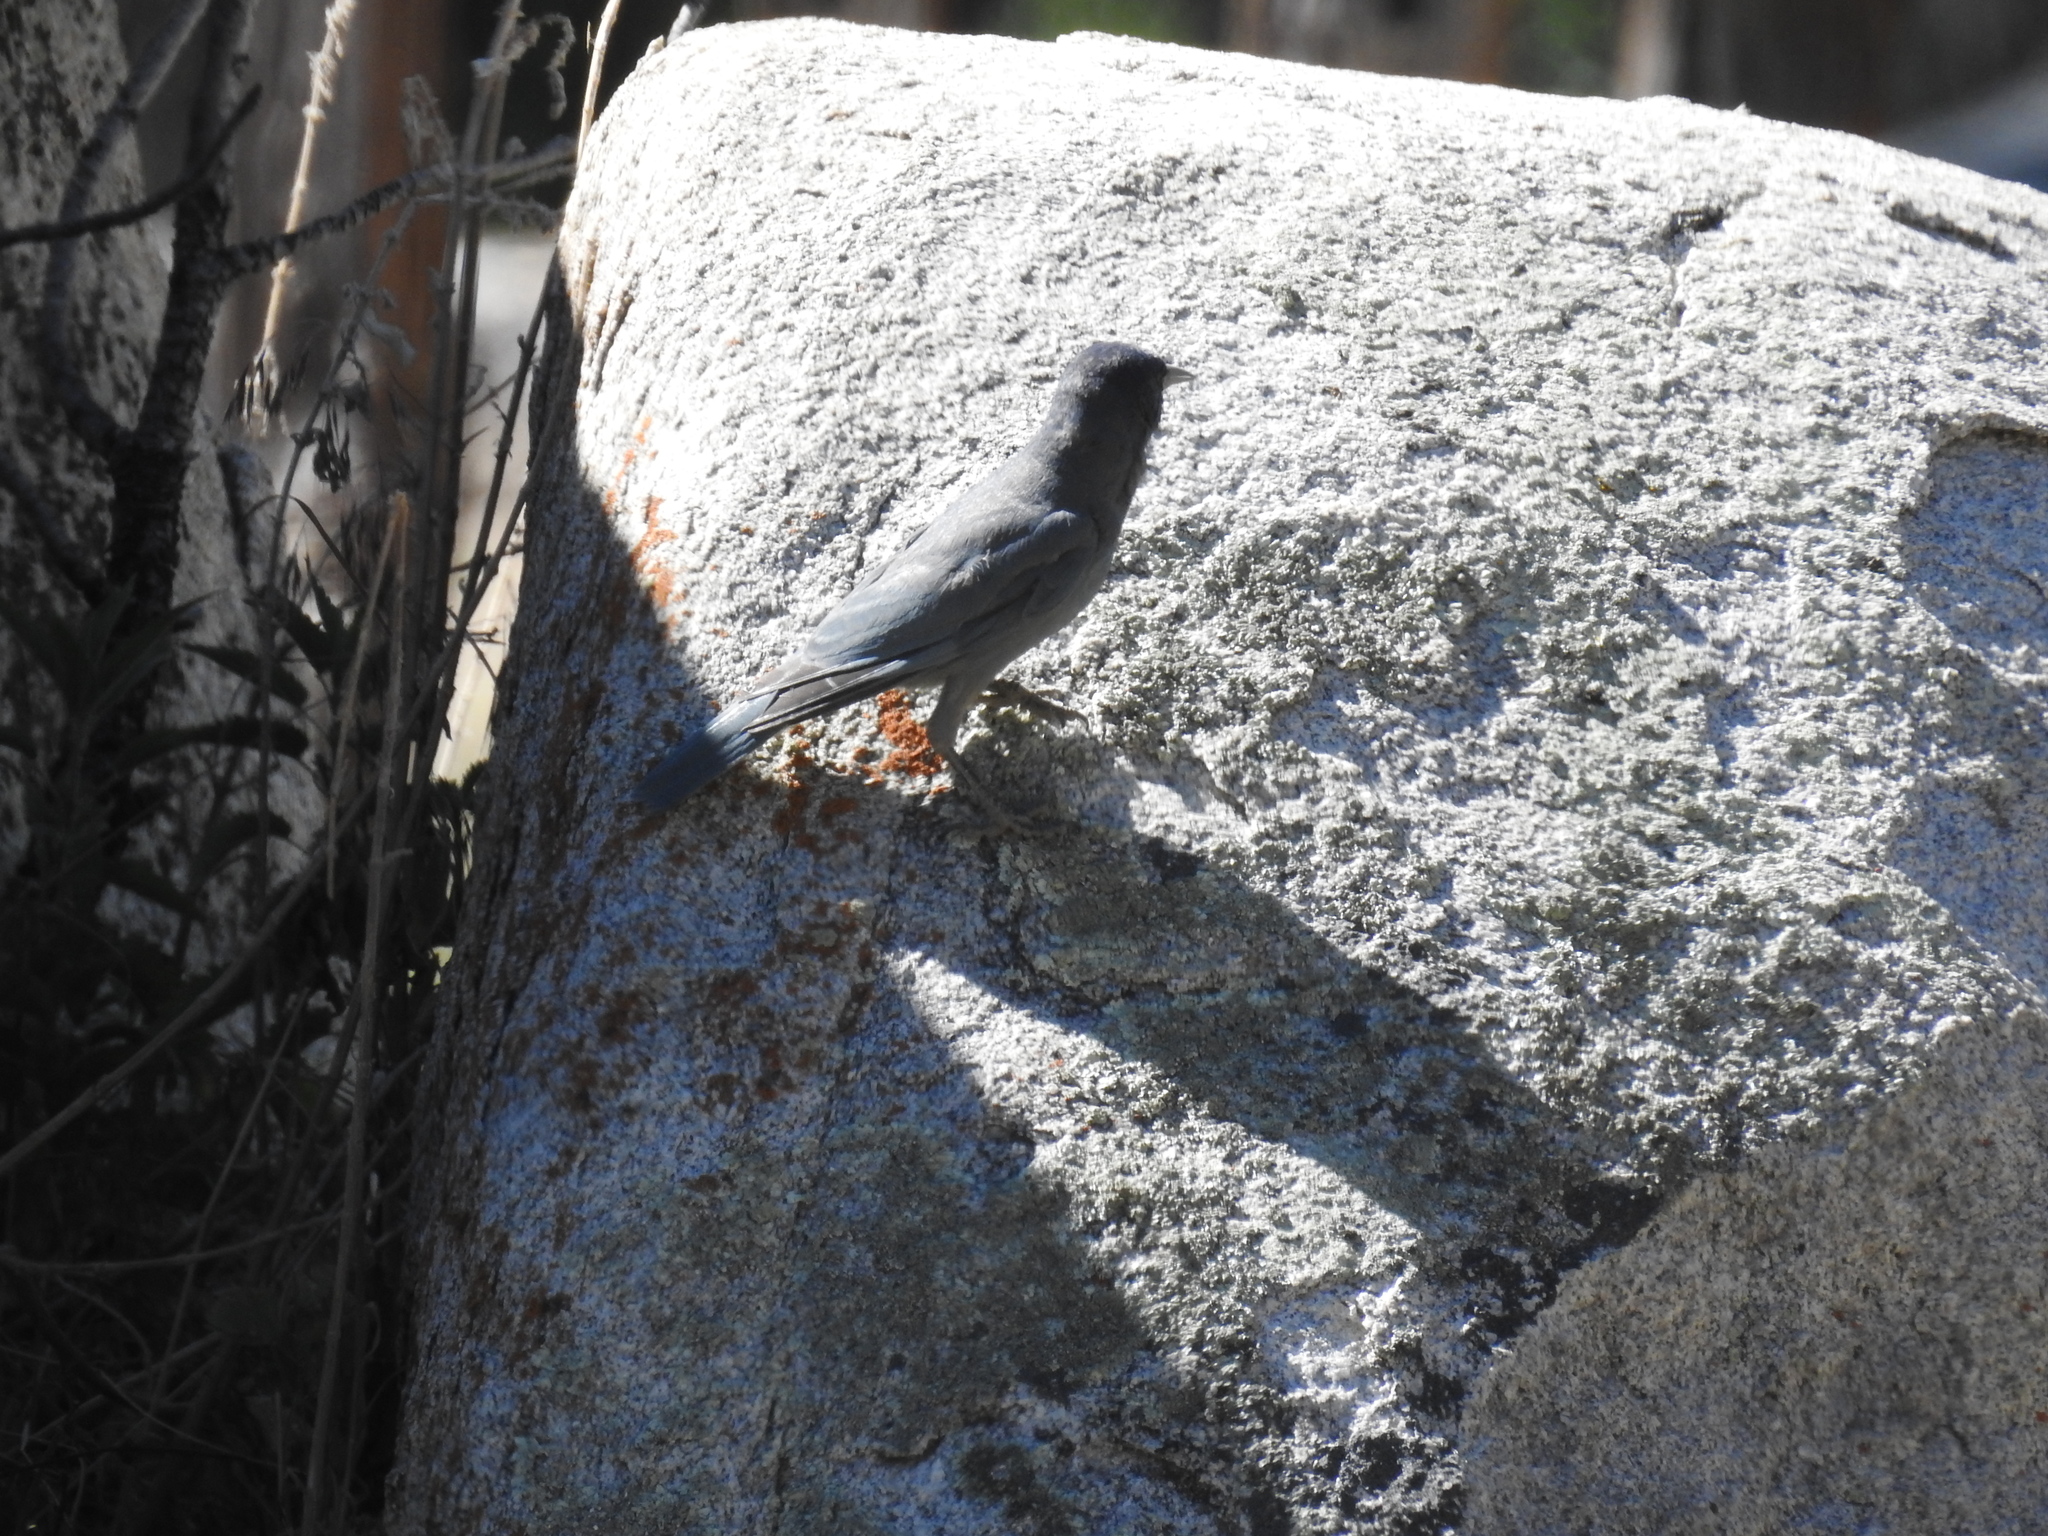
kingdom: Animalia
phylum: Chordata
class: Aves
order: Passeriformes
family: Corvidae
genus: Gymnorhinus
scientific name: Gymnorhinus cyanocephalus
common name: Pinyon jay
